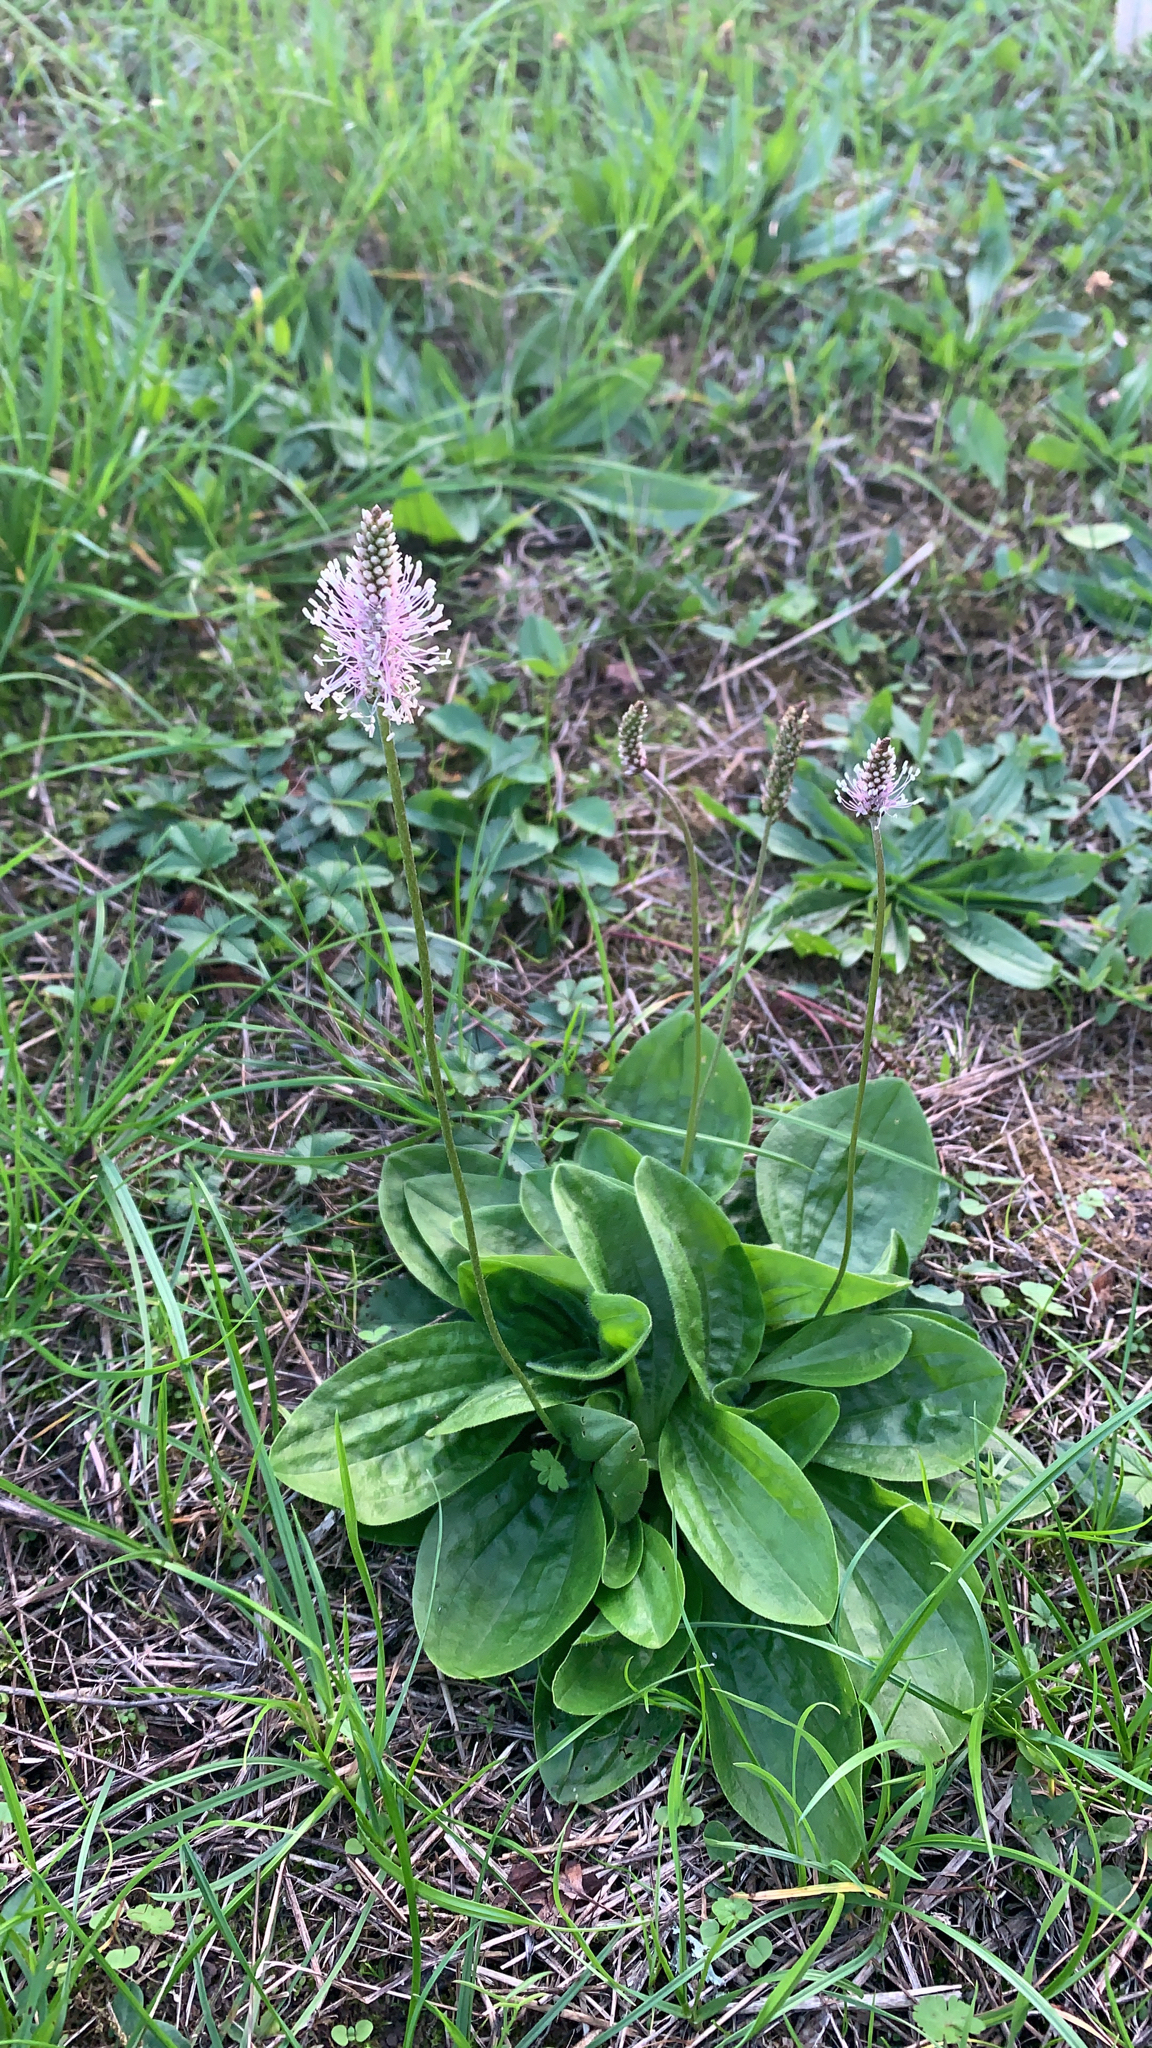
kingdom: Plantae
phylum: Tracheophyta
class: Magnoliopsida
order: Lamiales
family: Plantaginaceae
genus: Plantago
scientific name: Plantago media
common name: Hoary plantain
